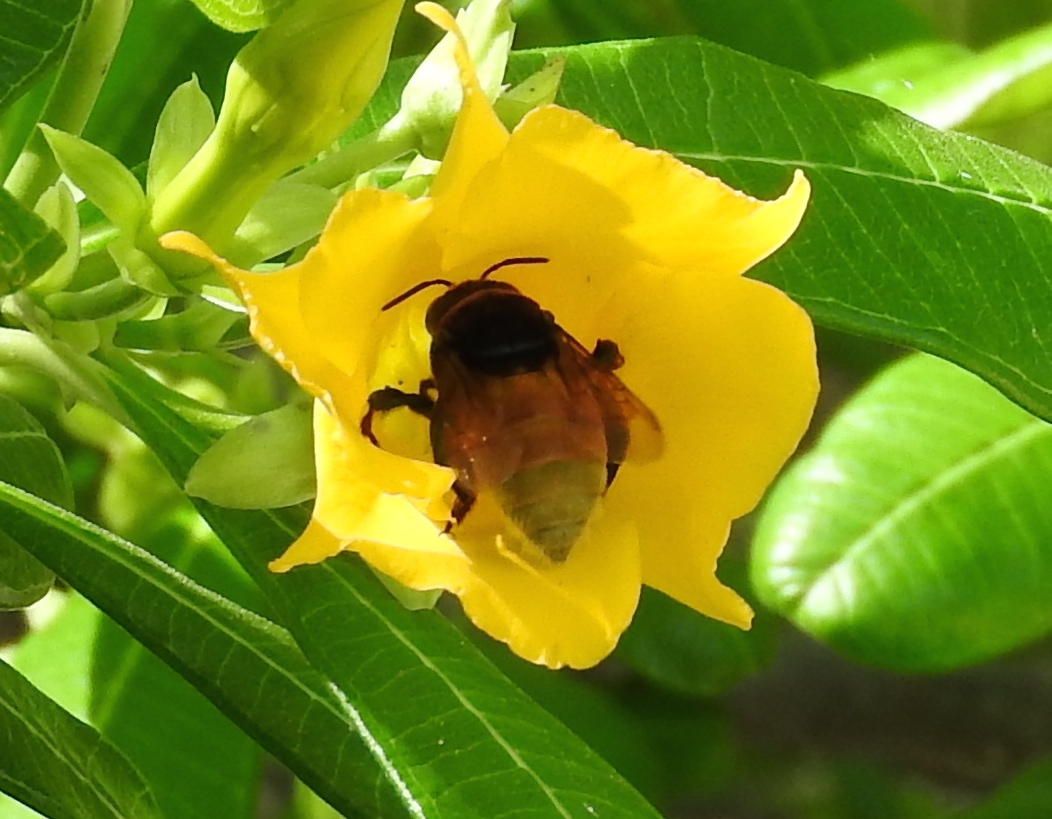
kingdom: Animalia
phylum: Arthropoda
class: Insecta
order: Hymenoptera
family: Apidae
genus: Eufriesea
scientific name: Eufriesea
